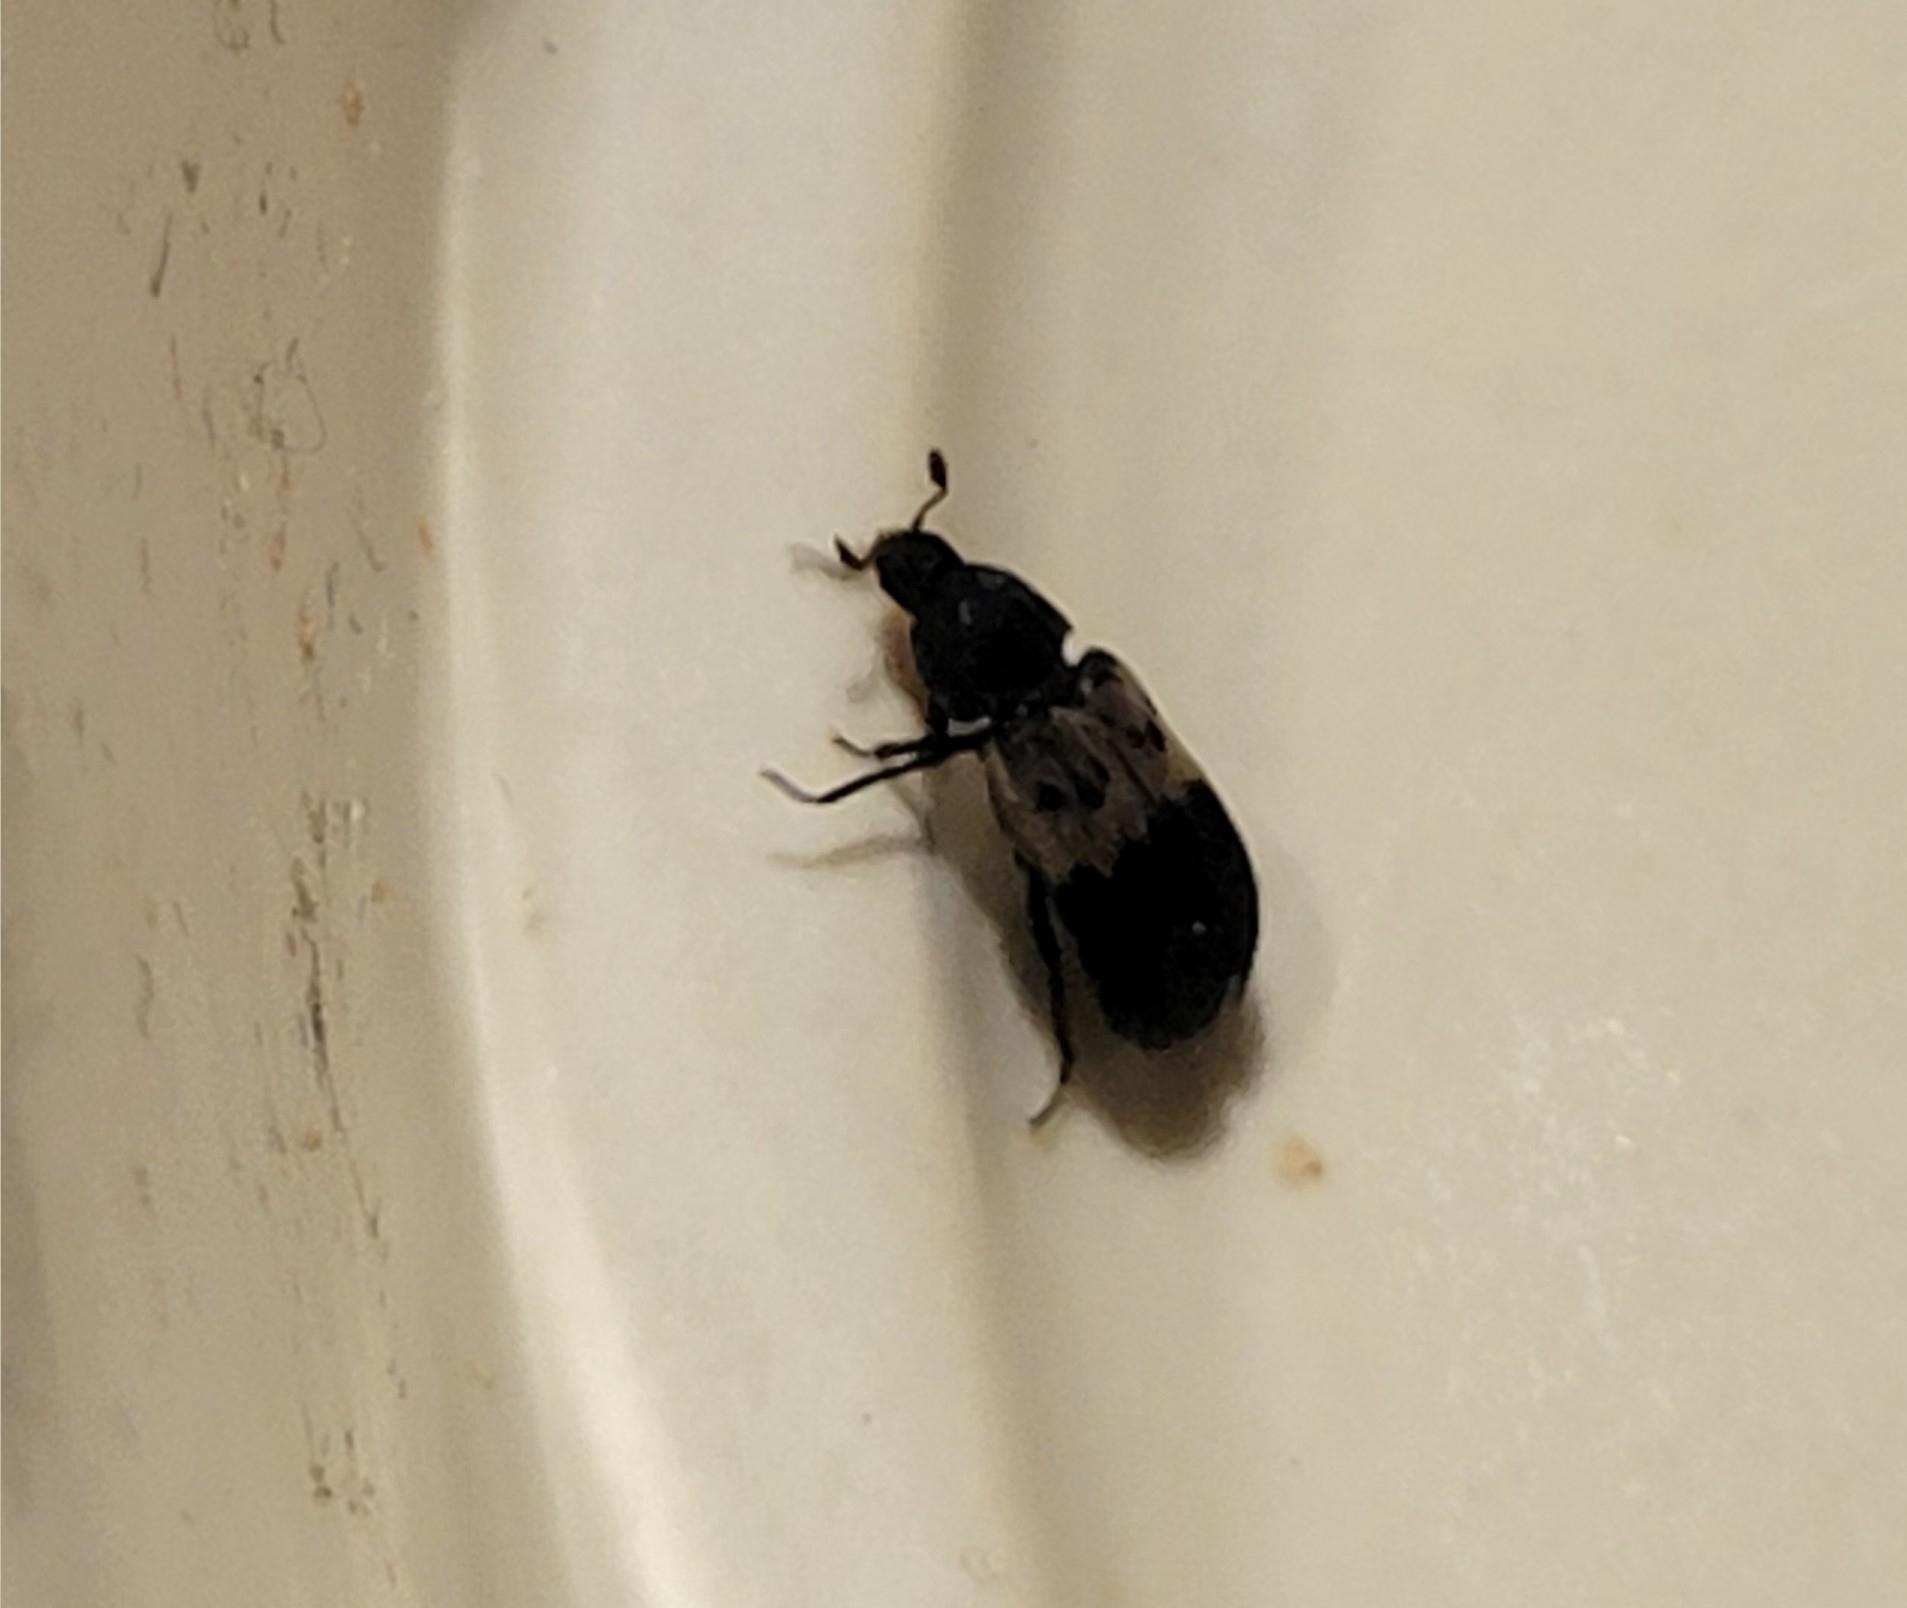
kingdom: Animalia
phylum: Arthropoda
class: Insecta
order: Coleoptera
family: Dermestidae
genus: Dermestes
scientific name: Dermestes lardarius
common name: Larder beetle
